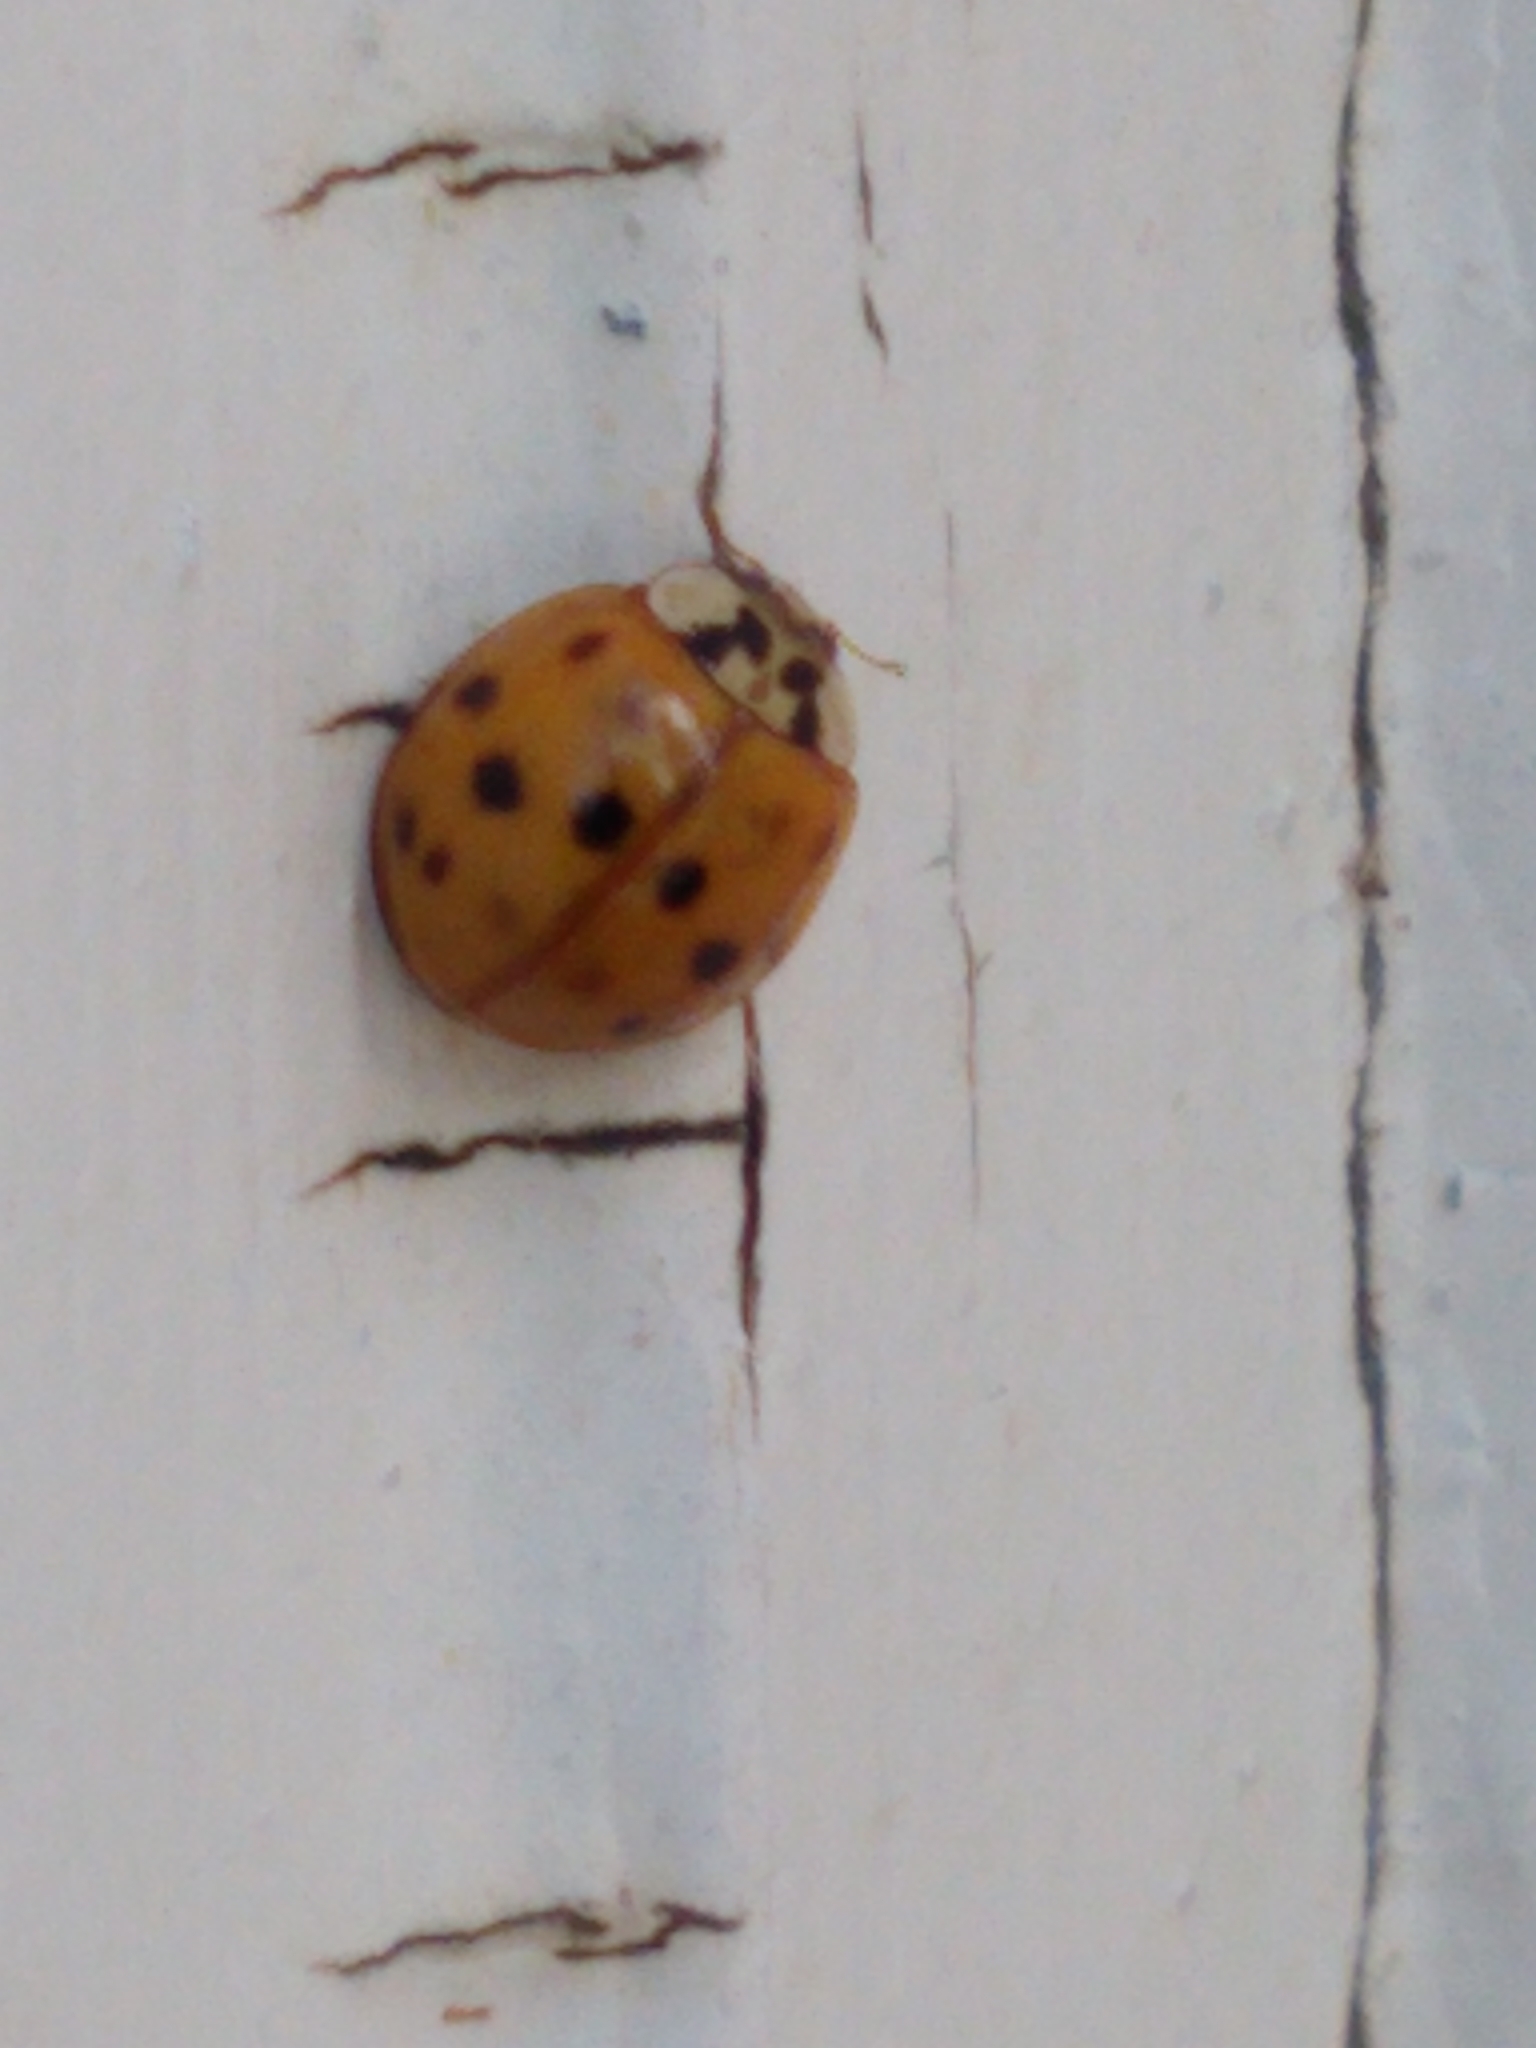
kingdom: Animalia
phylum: Arthropoda
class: Insecta
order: Coleoptera
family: Coccinellidae
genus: Harmonia
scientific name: Harmonia axyridis
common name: Harlequin ladybird
